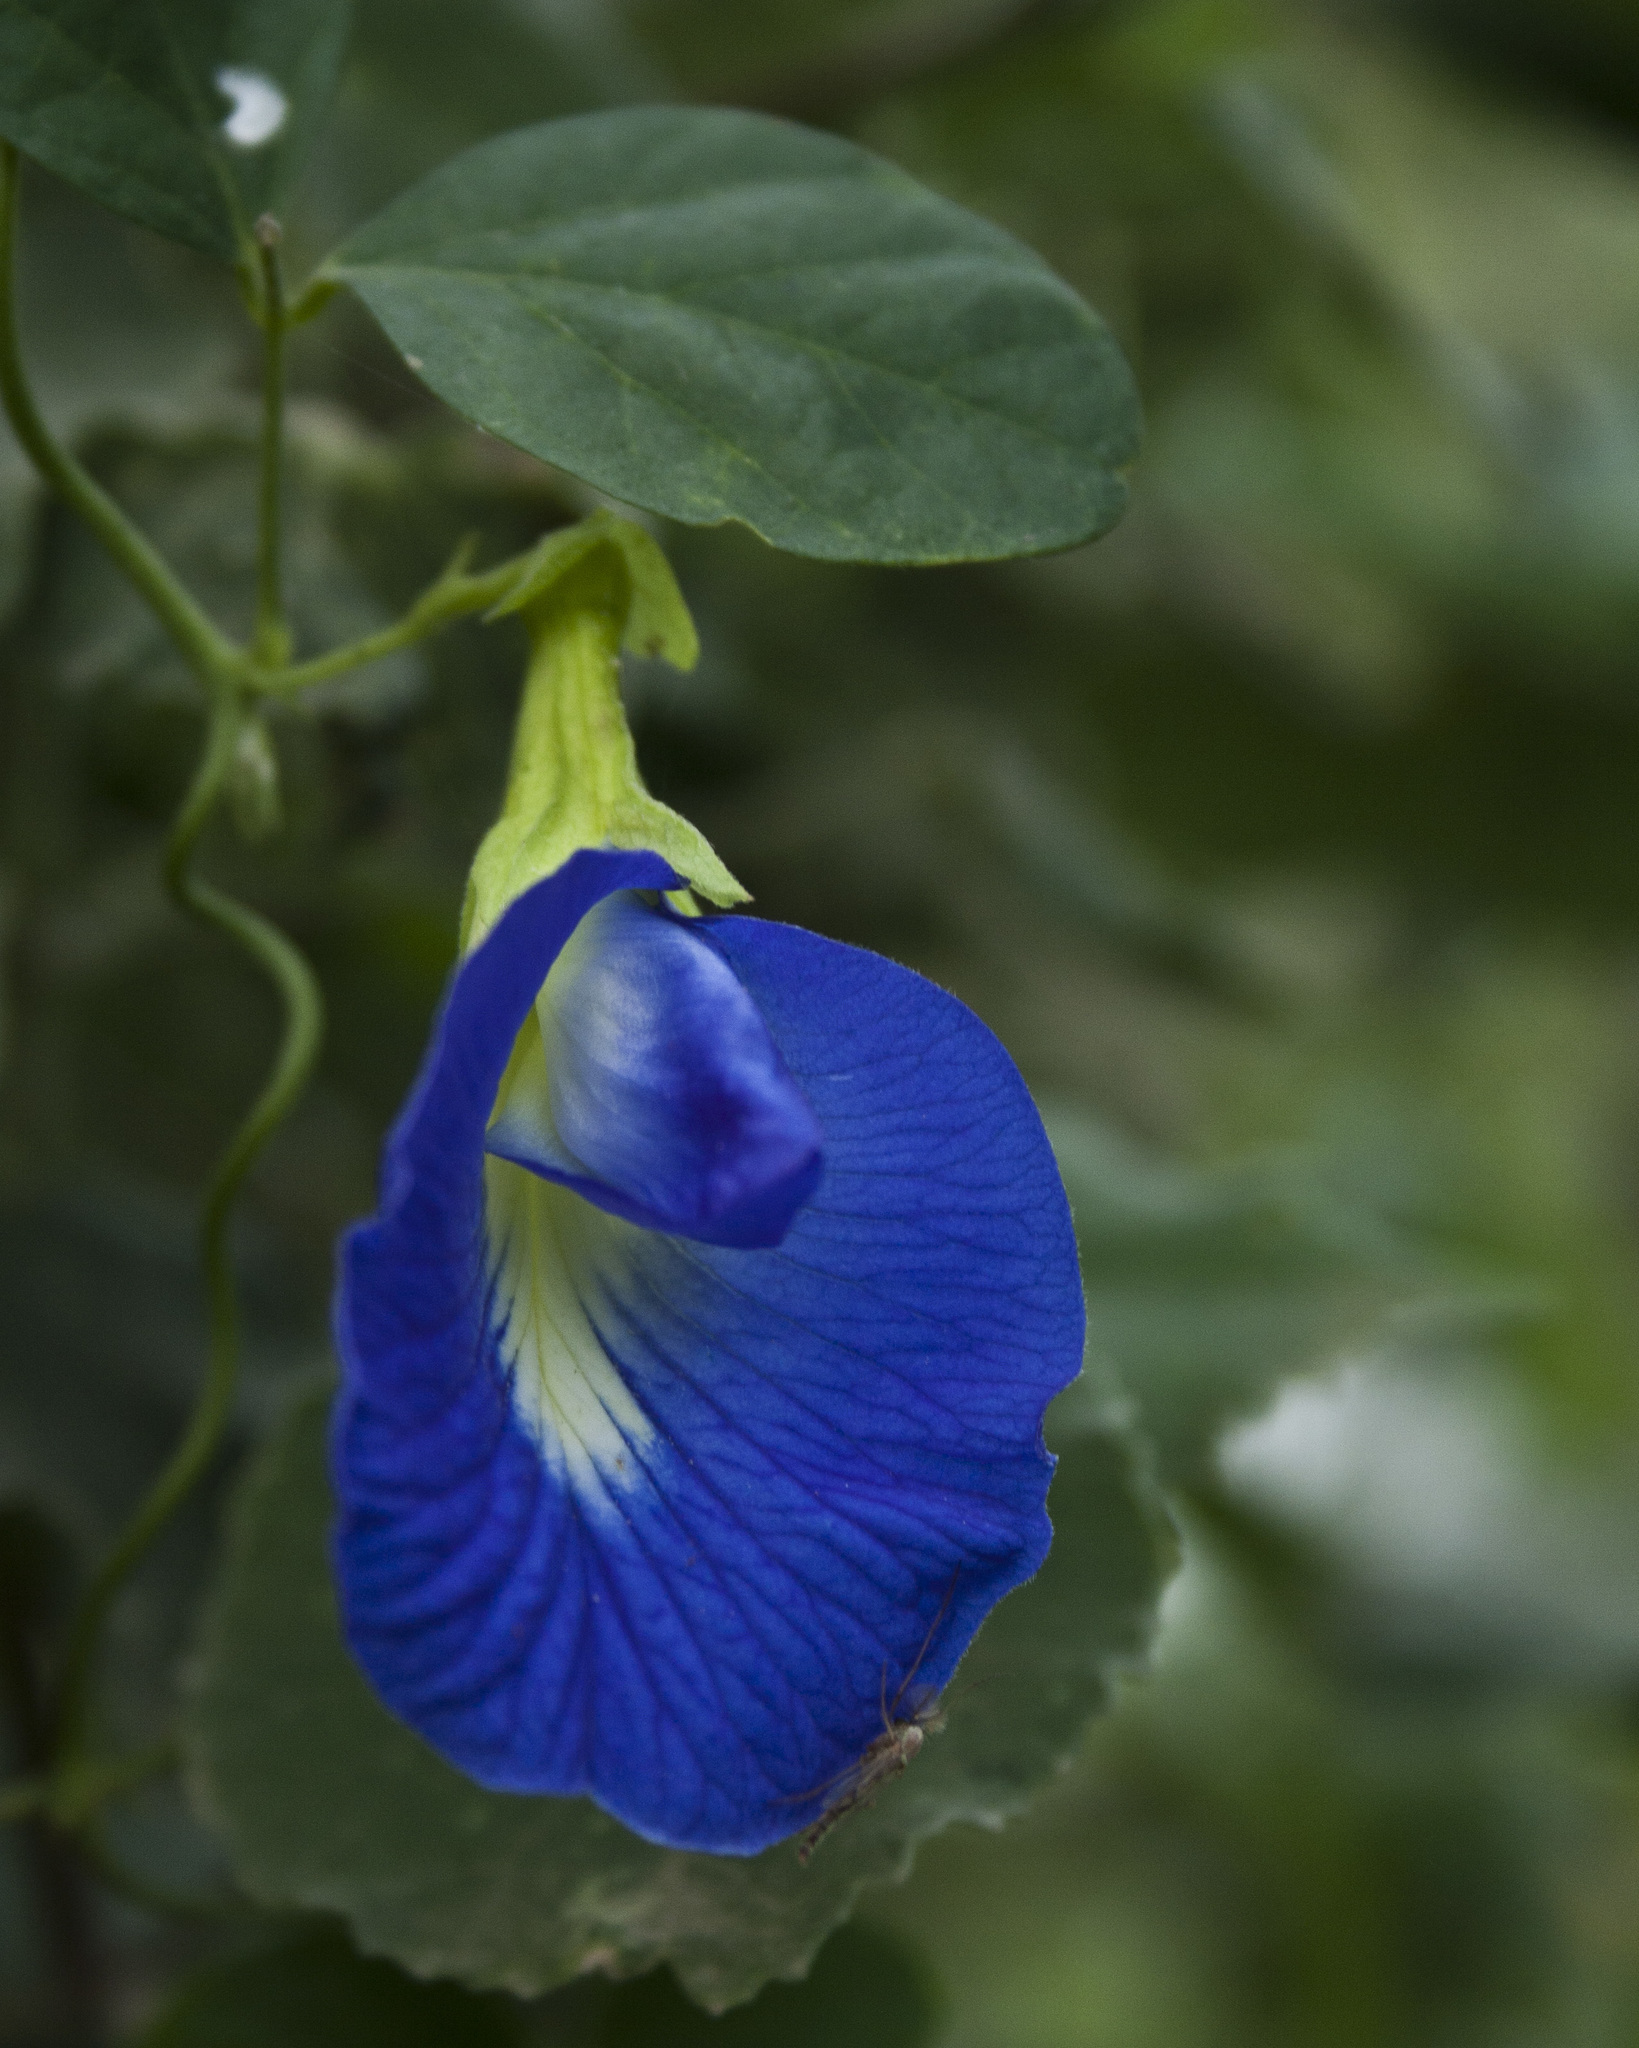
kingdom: Plantae
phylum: Tracheophyta
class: Magnoliopsida
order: Fabales
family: Fabaceae
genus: Clitoria
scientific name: Clitoria ternatea
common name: Asian pigeonwings
